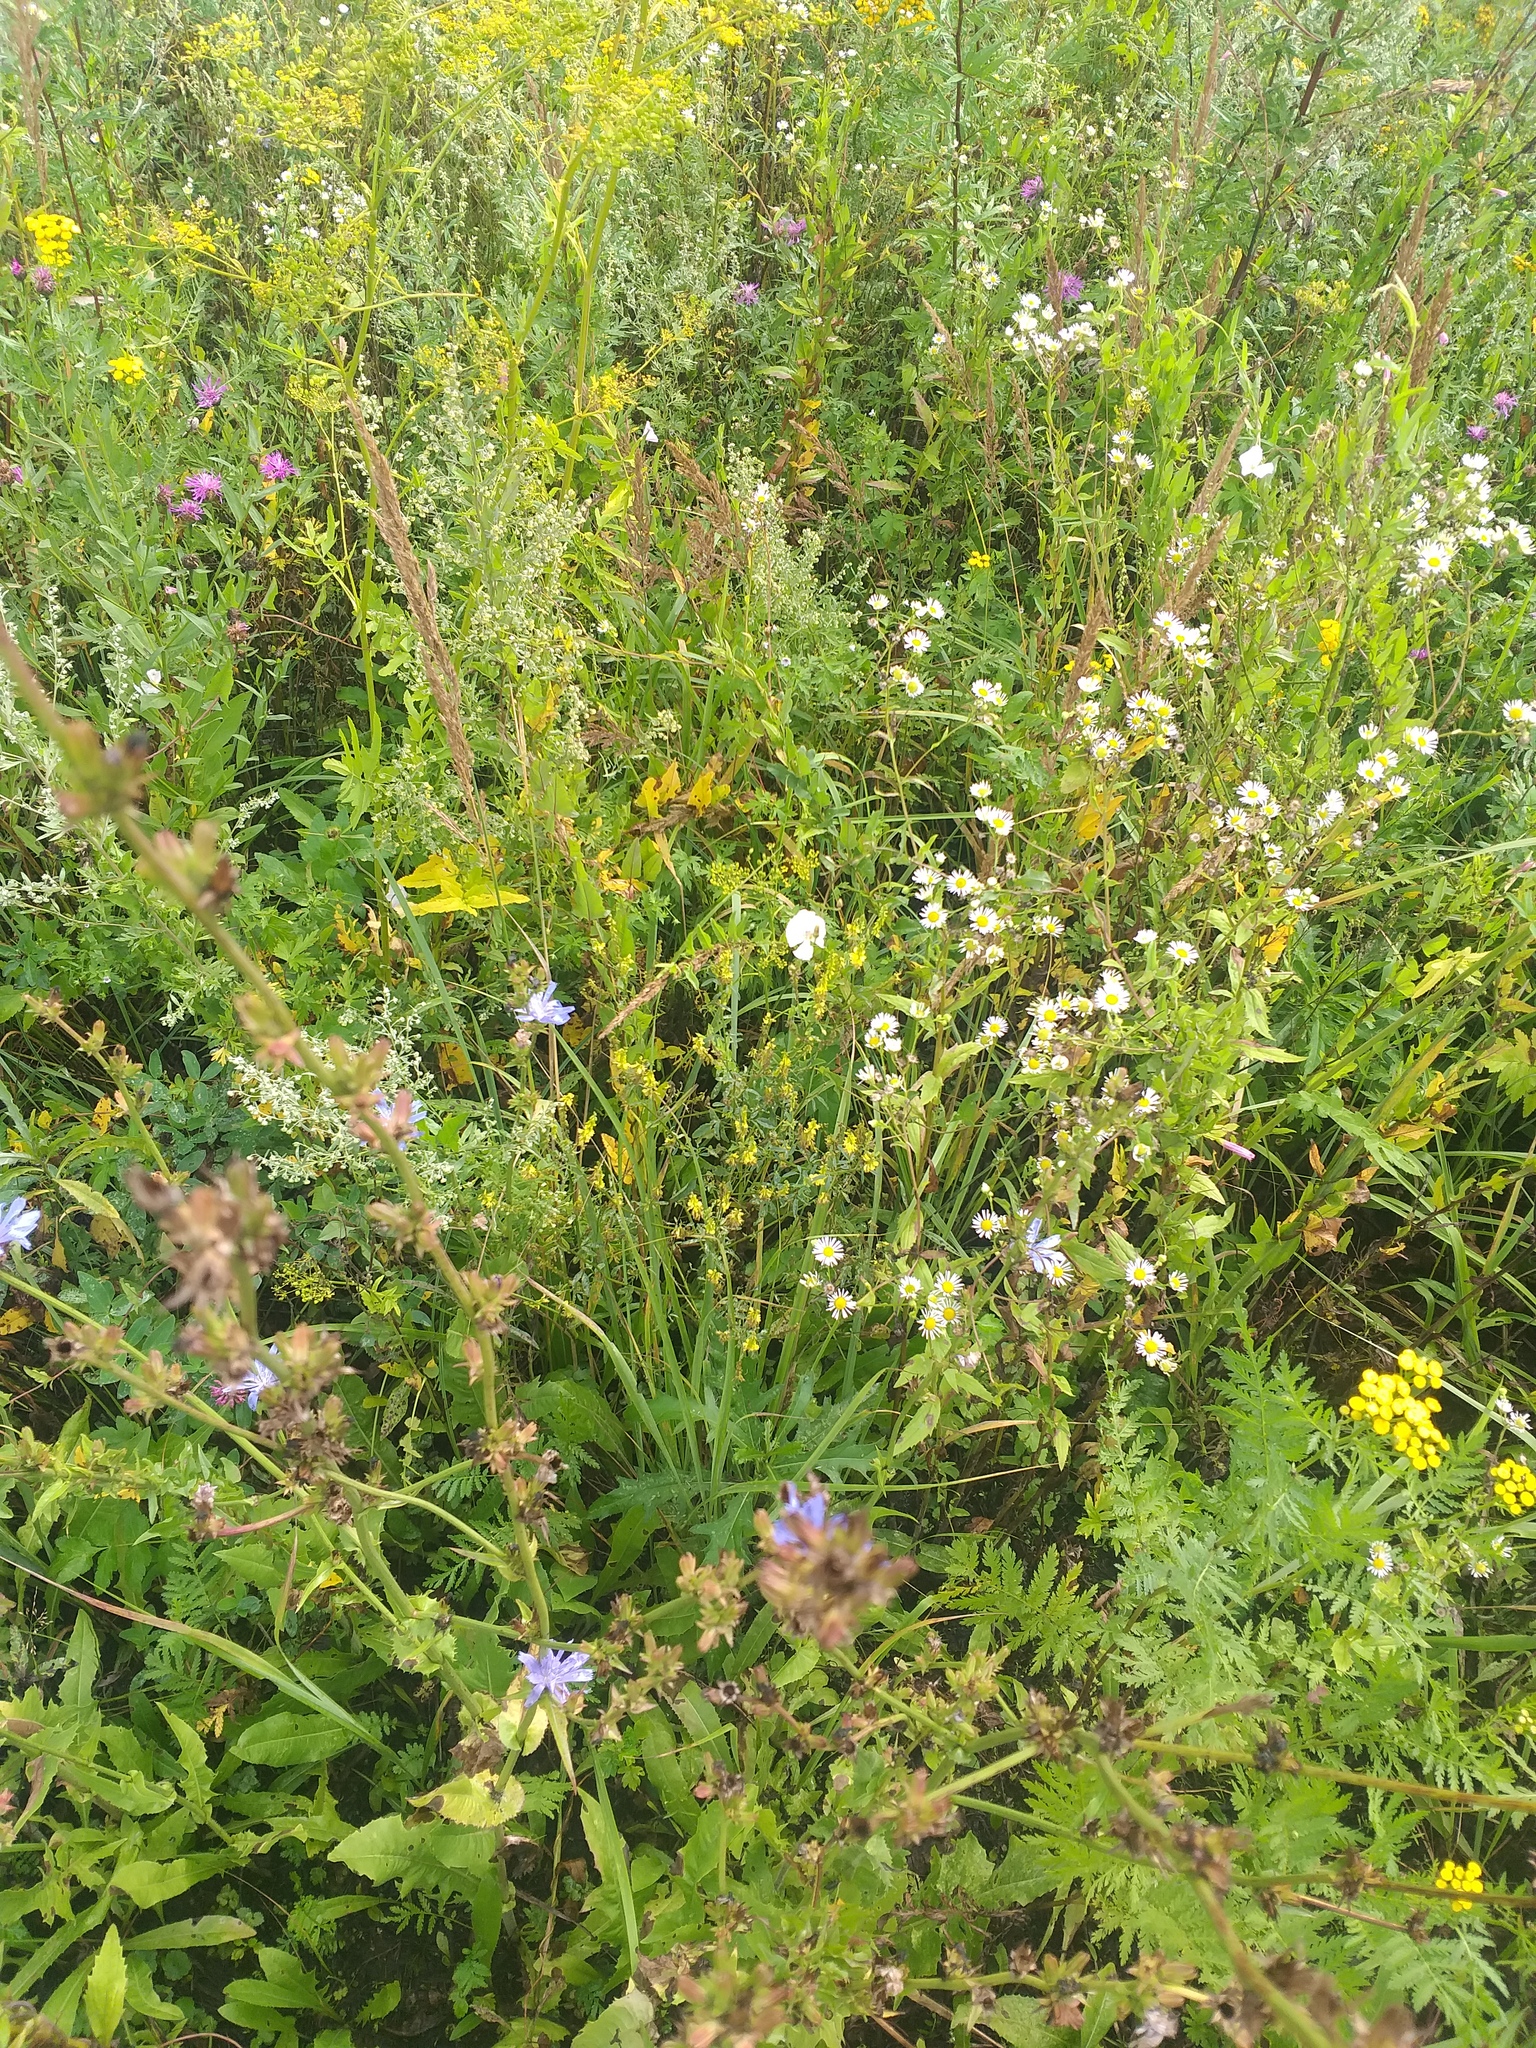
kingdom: Plantae
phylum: Tracheophyta
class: Magnoliopsida
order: Fabales
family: Fabaceae
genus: Melilotus
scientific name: Melilotus officinalis
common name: Sweetclover
